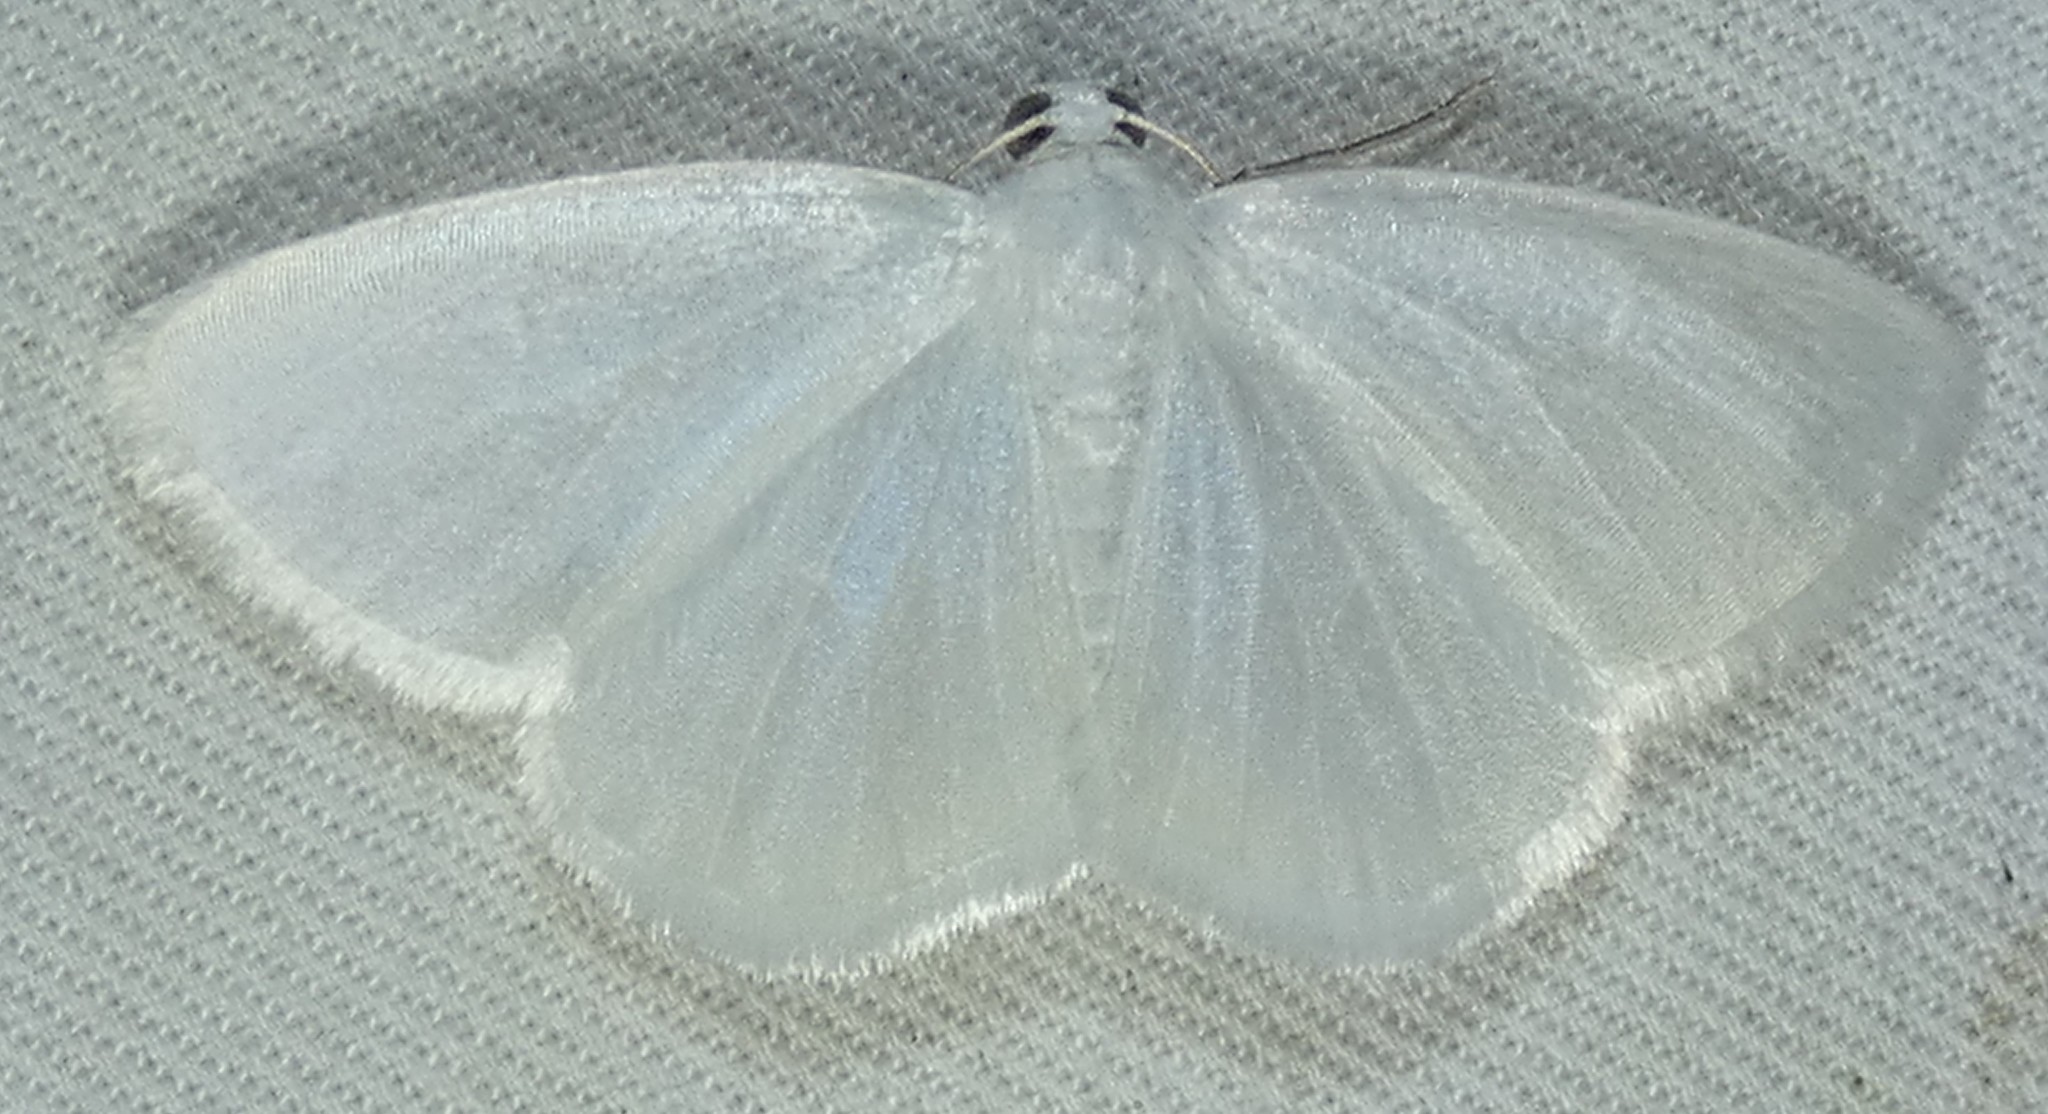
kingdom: Animalia
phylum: Arthropoda
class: Insecta
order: Lepidoptera
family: Geometridae
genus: Lomographa
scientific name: Lomographa vestaliata
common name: White spring moth
